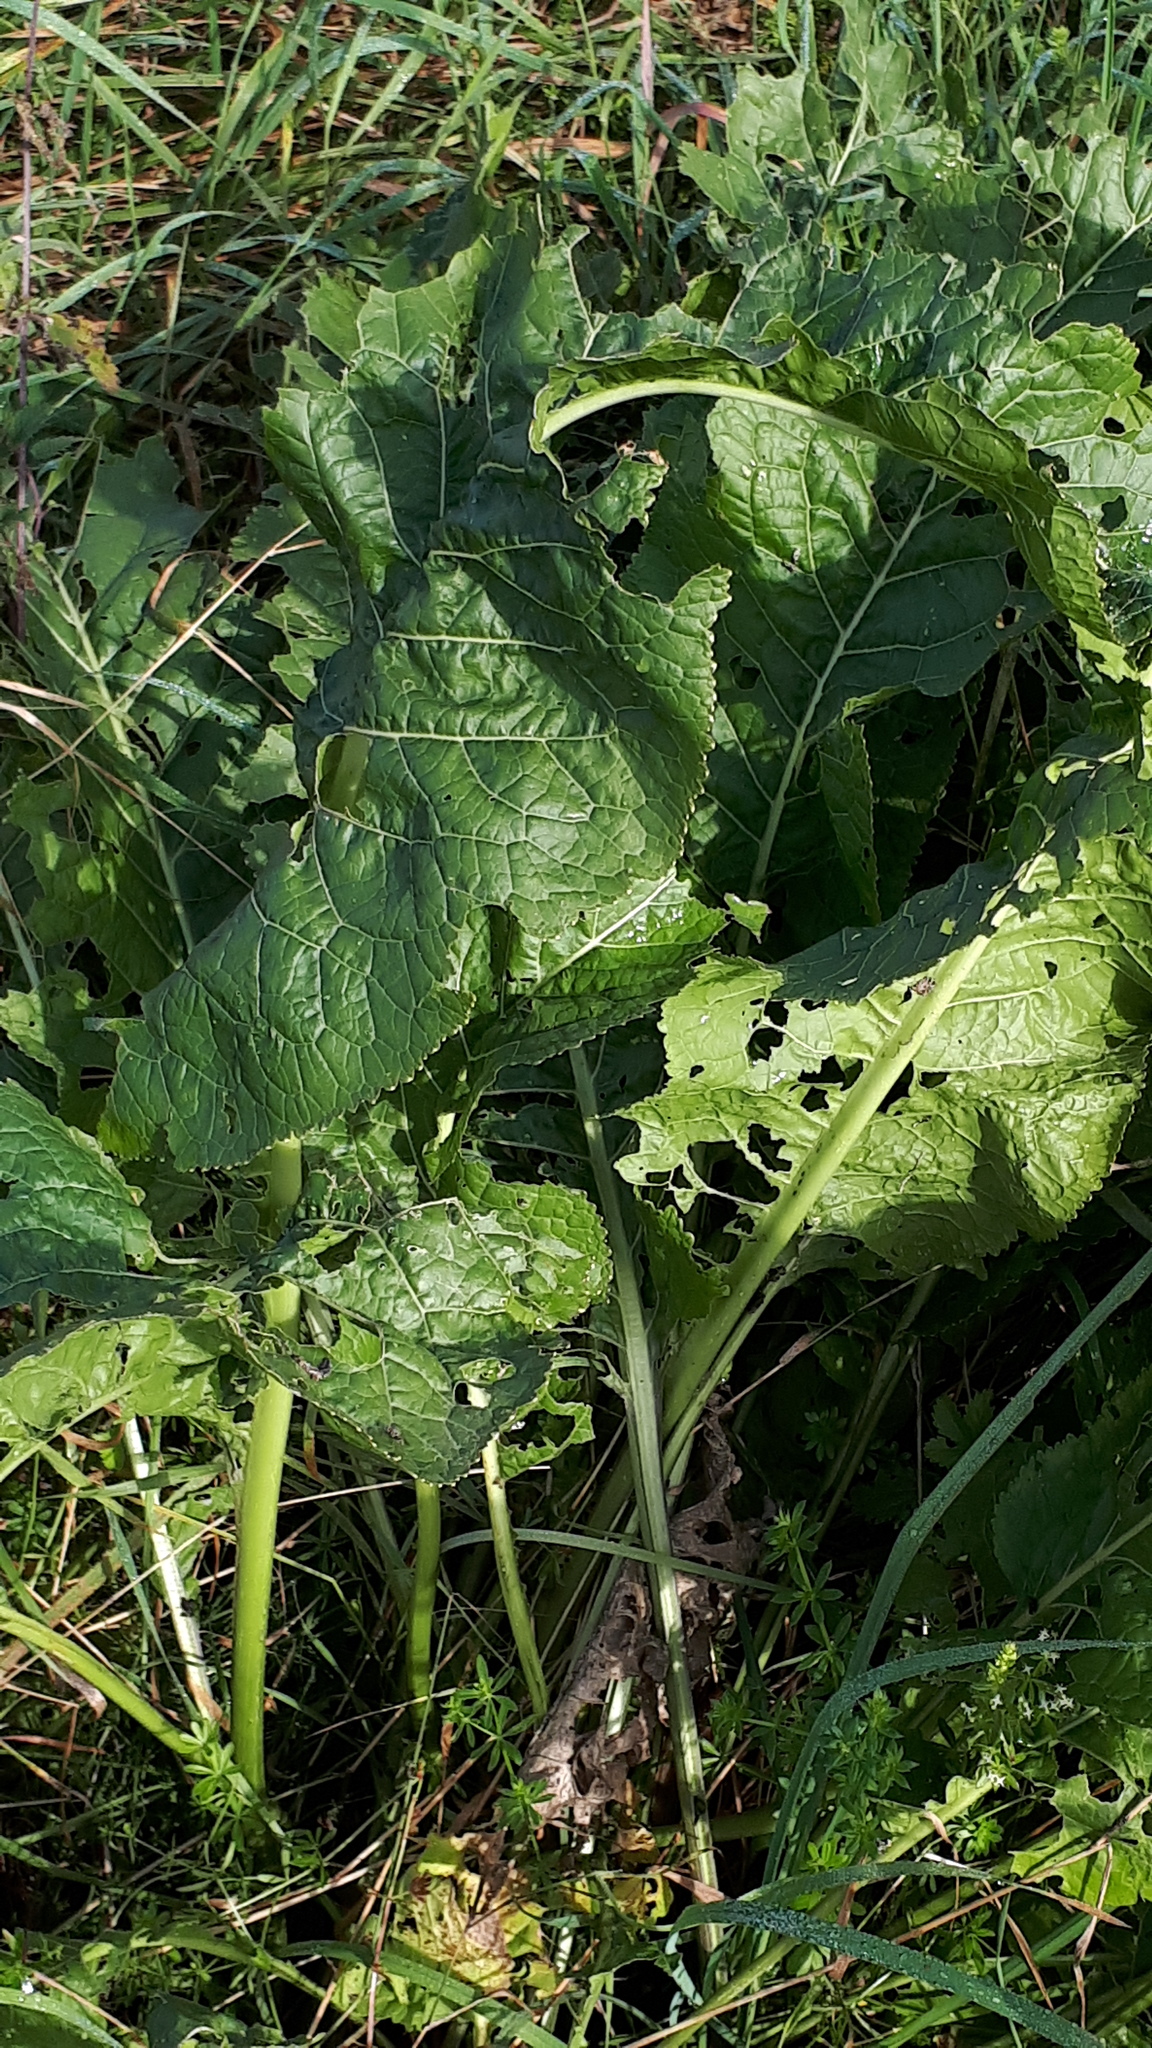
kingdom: Plantae
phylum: Tracheophyta
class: Magnoliopsida
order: Brassicales
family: Brassicaceae
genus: Armoracia
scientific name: Armoracia rusticana
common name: Horseradish
